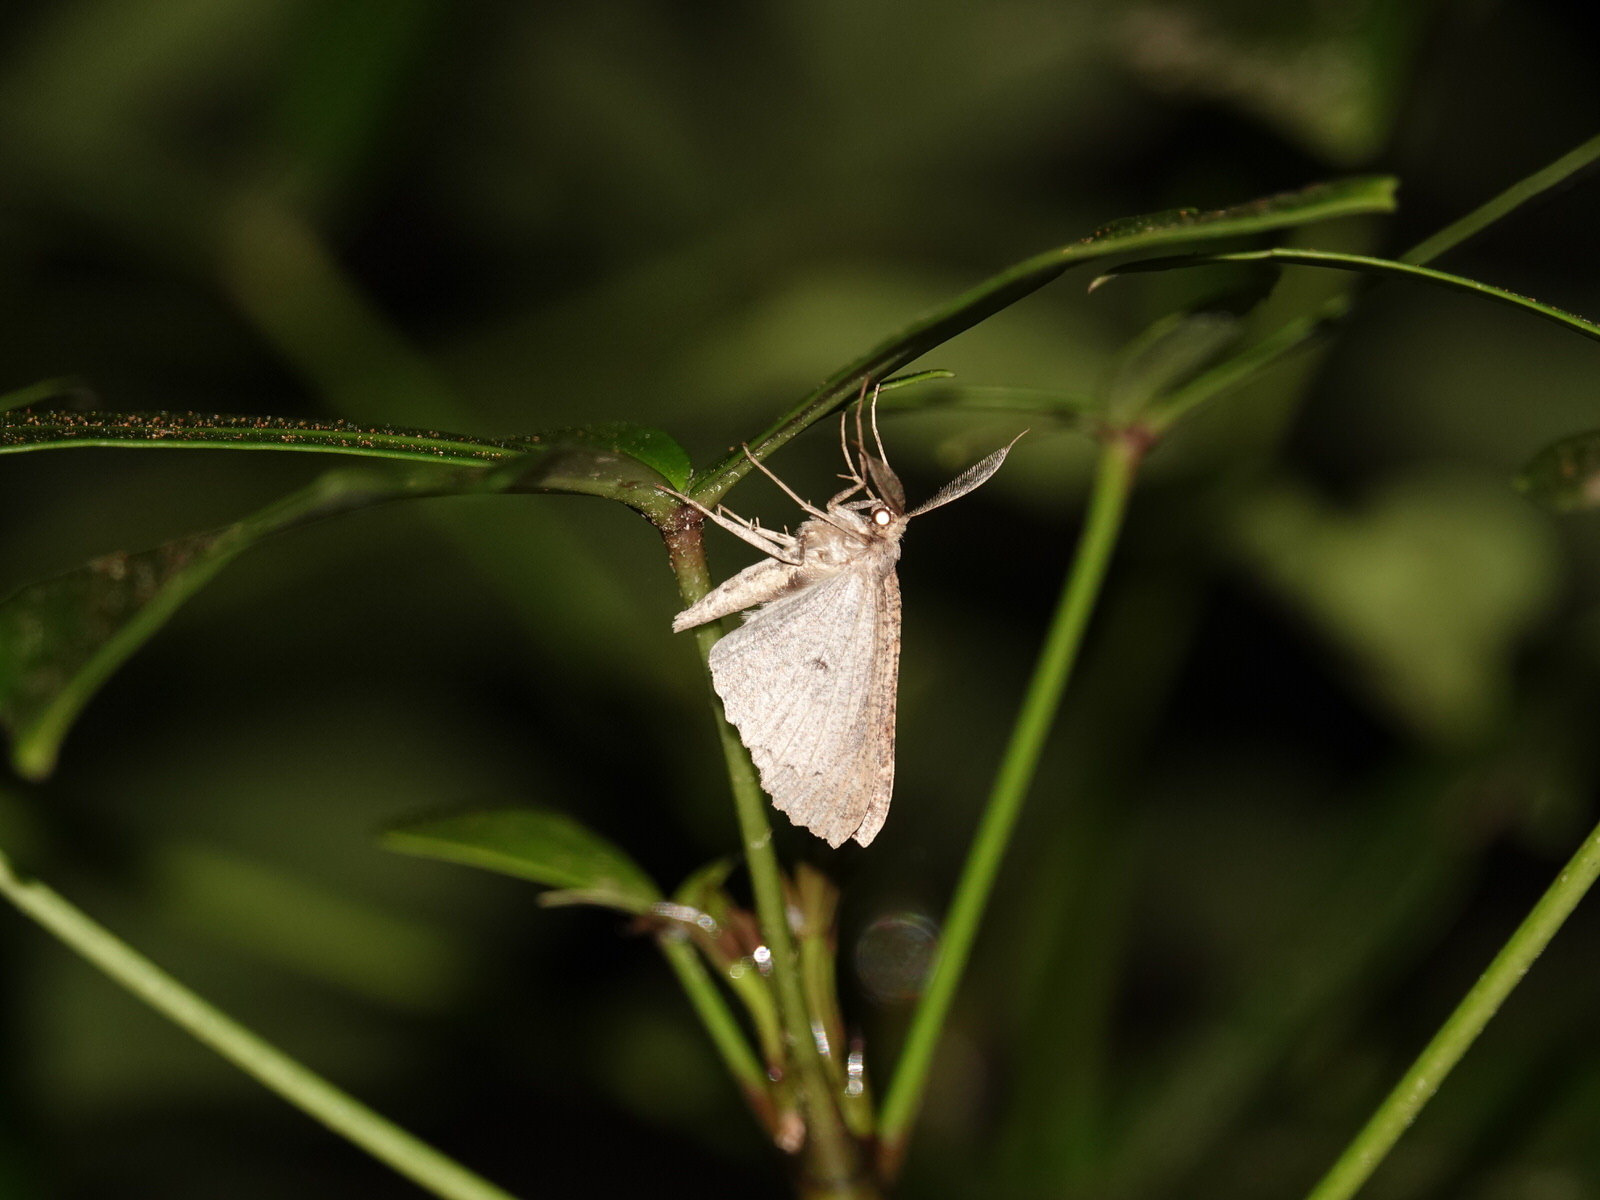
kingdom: Animalia
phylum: Arthropoda
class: Insecta
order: Lepidoptera
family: Geometridae
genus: Cleora
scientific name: Cleora scriptaria
